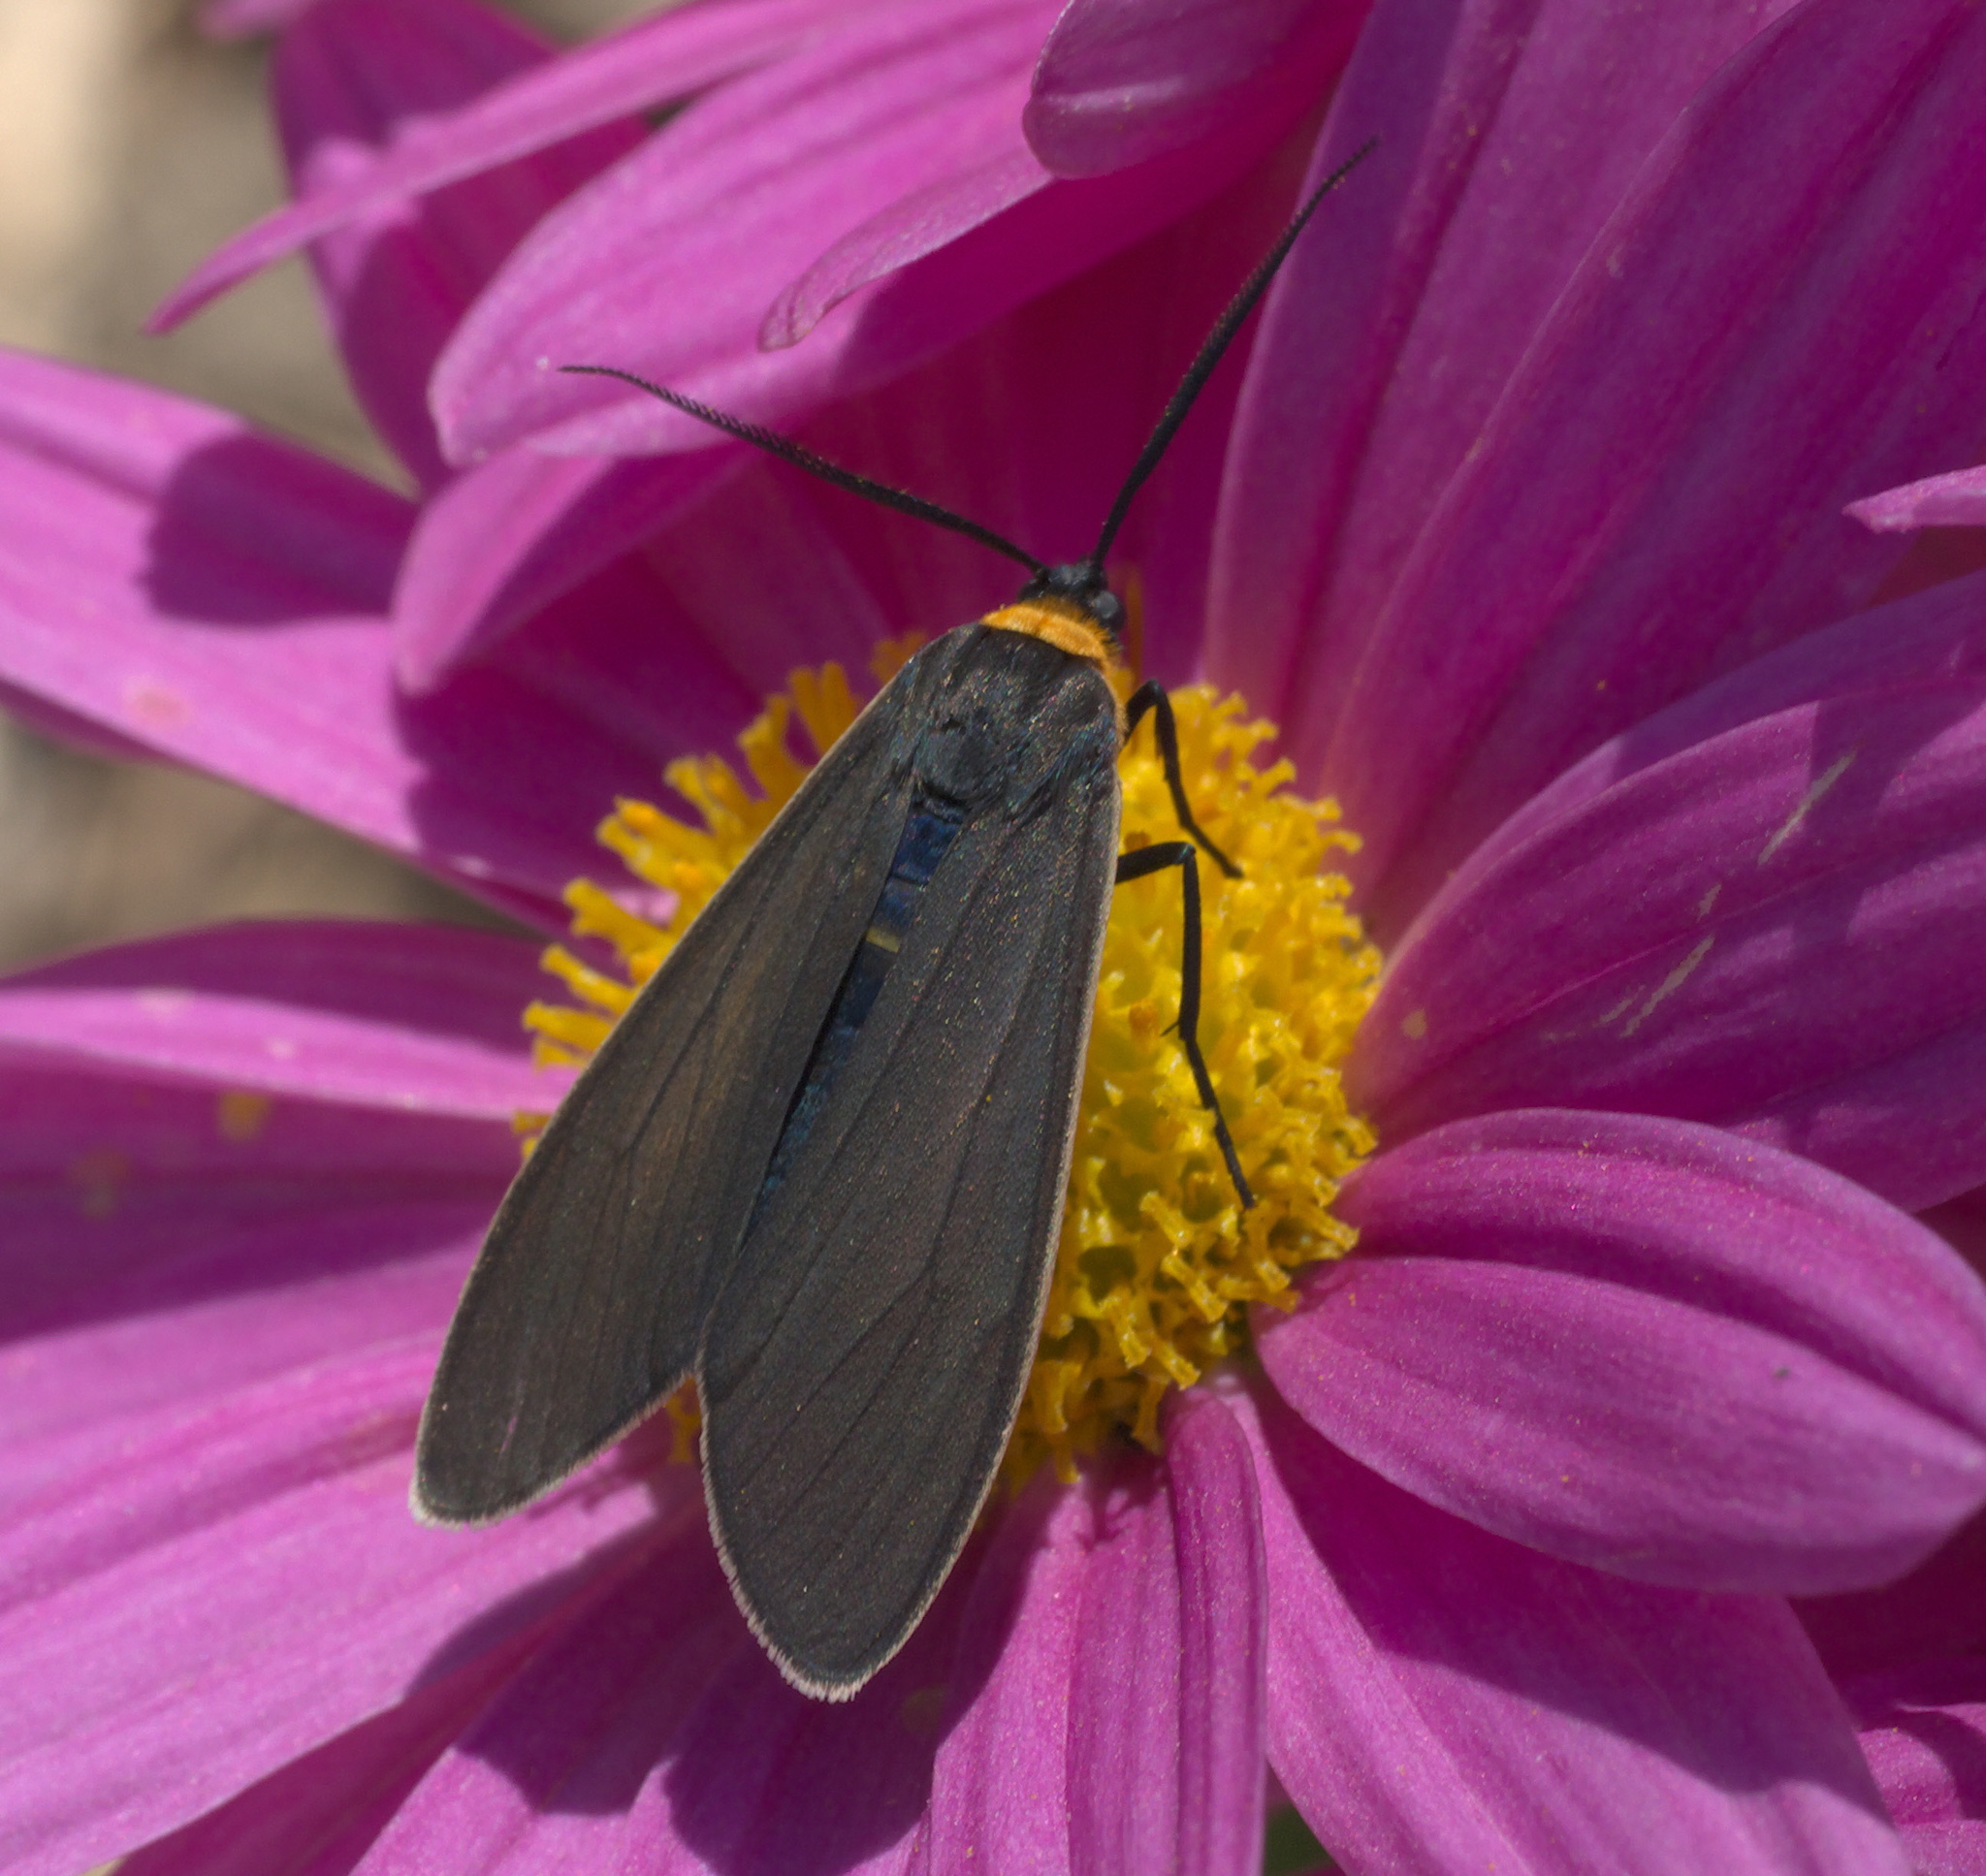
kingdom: Animalia
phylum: Arthropoda
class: Insecta
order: Lepidoptera
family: Erebidae
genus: Cisseps
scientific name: Cisseps fulvicollis
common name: Yellow-collared scape moth
